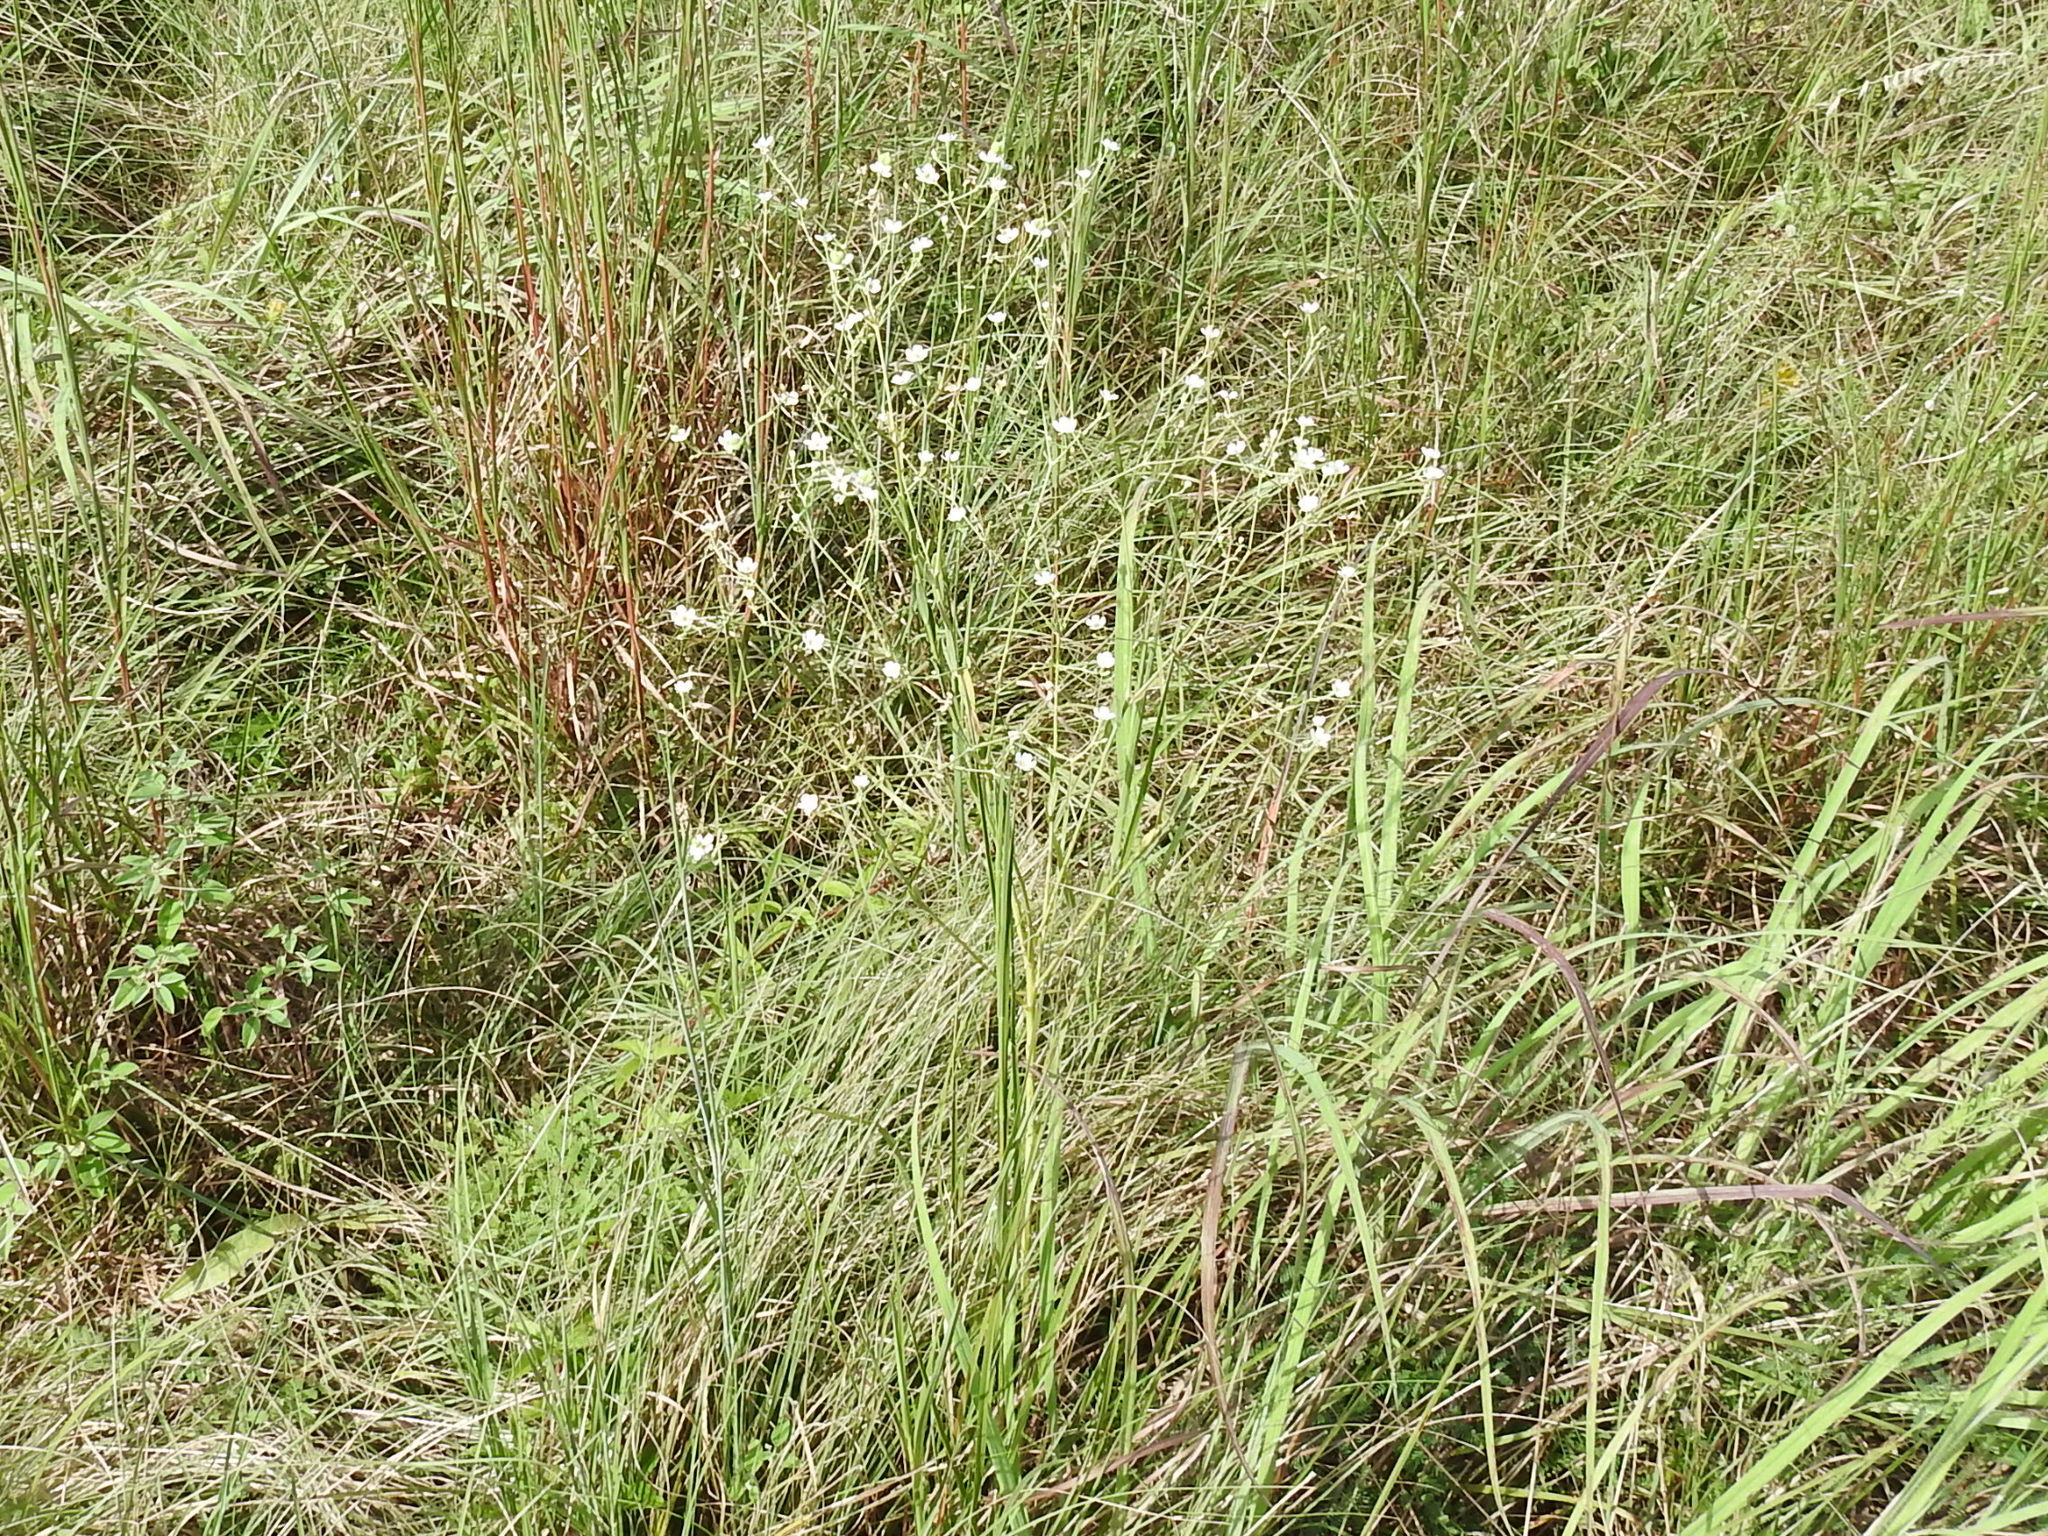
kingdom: Plantae
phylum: Tracheophyta
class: Magnoliopsida
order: Malpighiales
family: Euphorbiaceae
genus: Euphorbia
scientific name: Euphorbia corollata
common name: Flowering spurge
